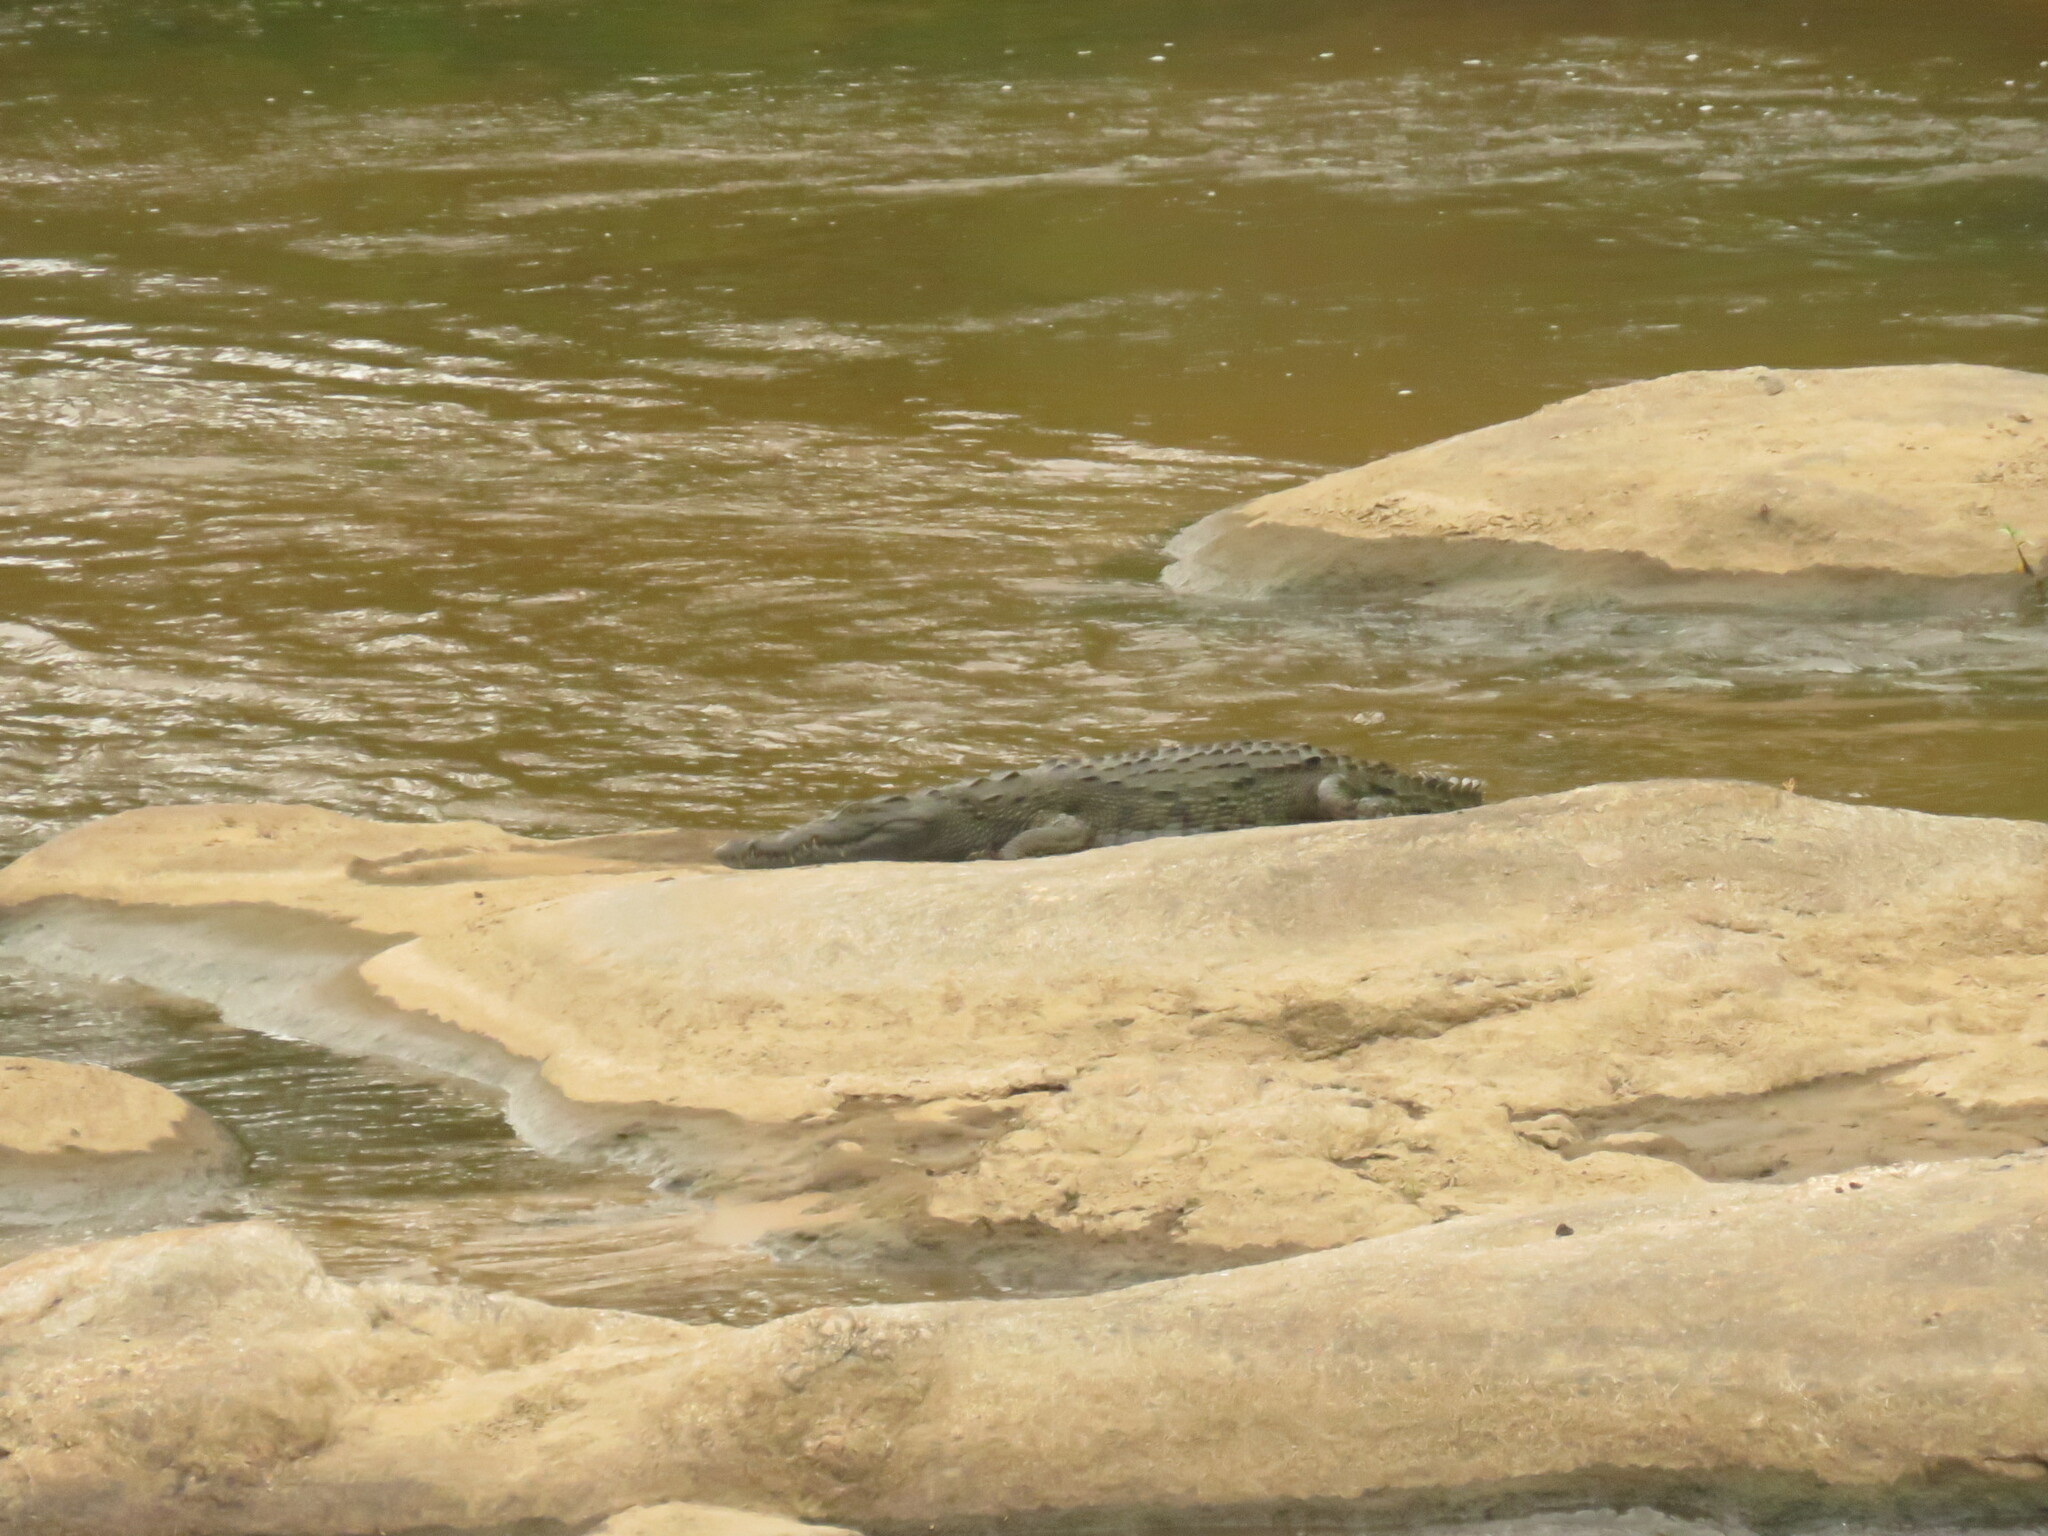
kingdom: Animalia
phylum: Chordata
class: Crocodylia
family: Crocodylidae
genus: Crocodylus
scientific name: Crocodylus niloticus
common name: Nile crocodile
